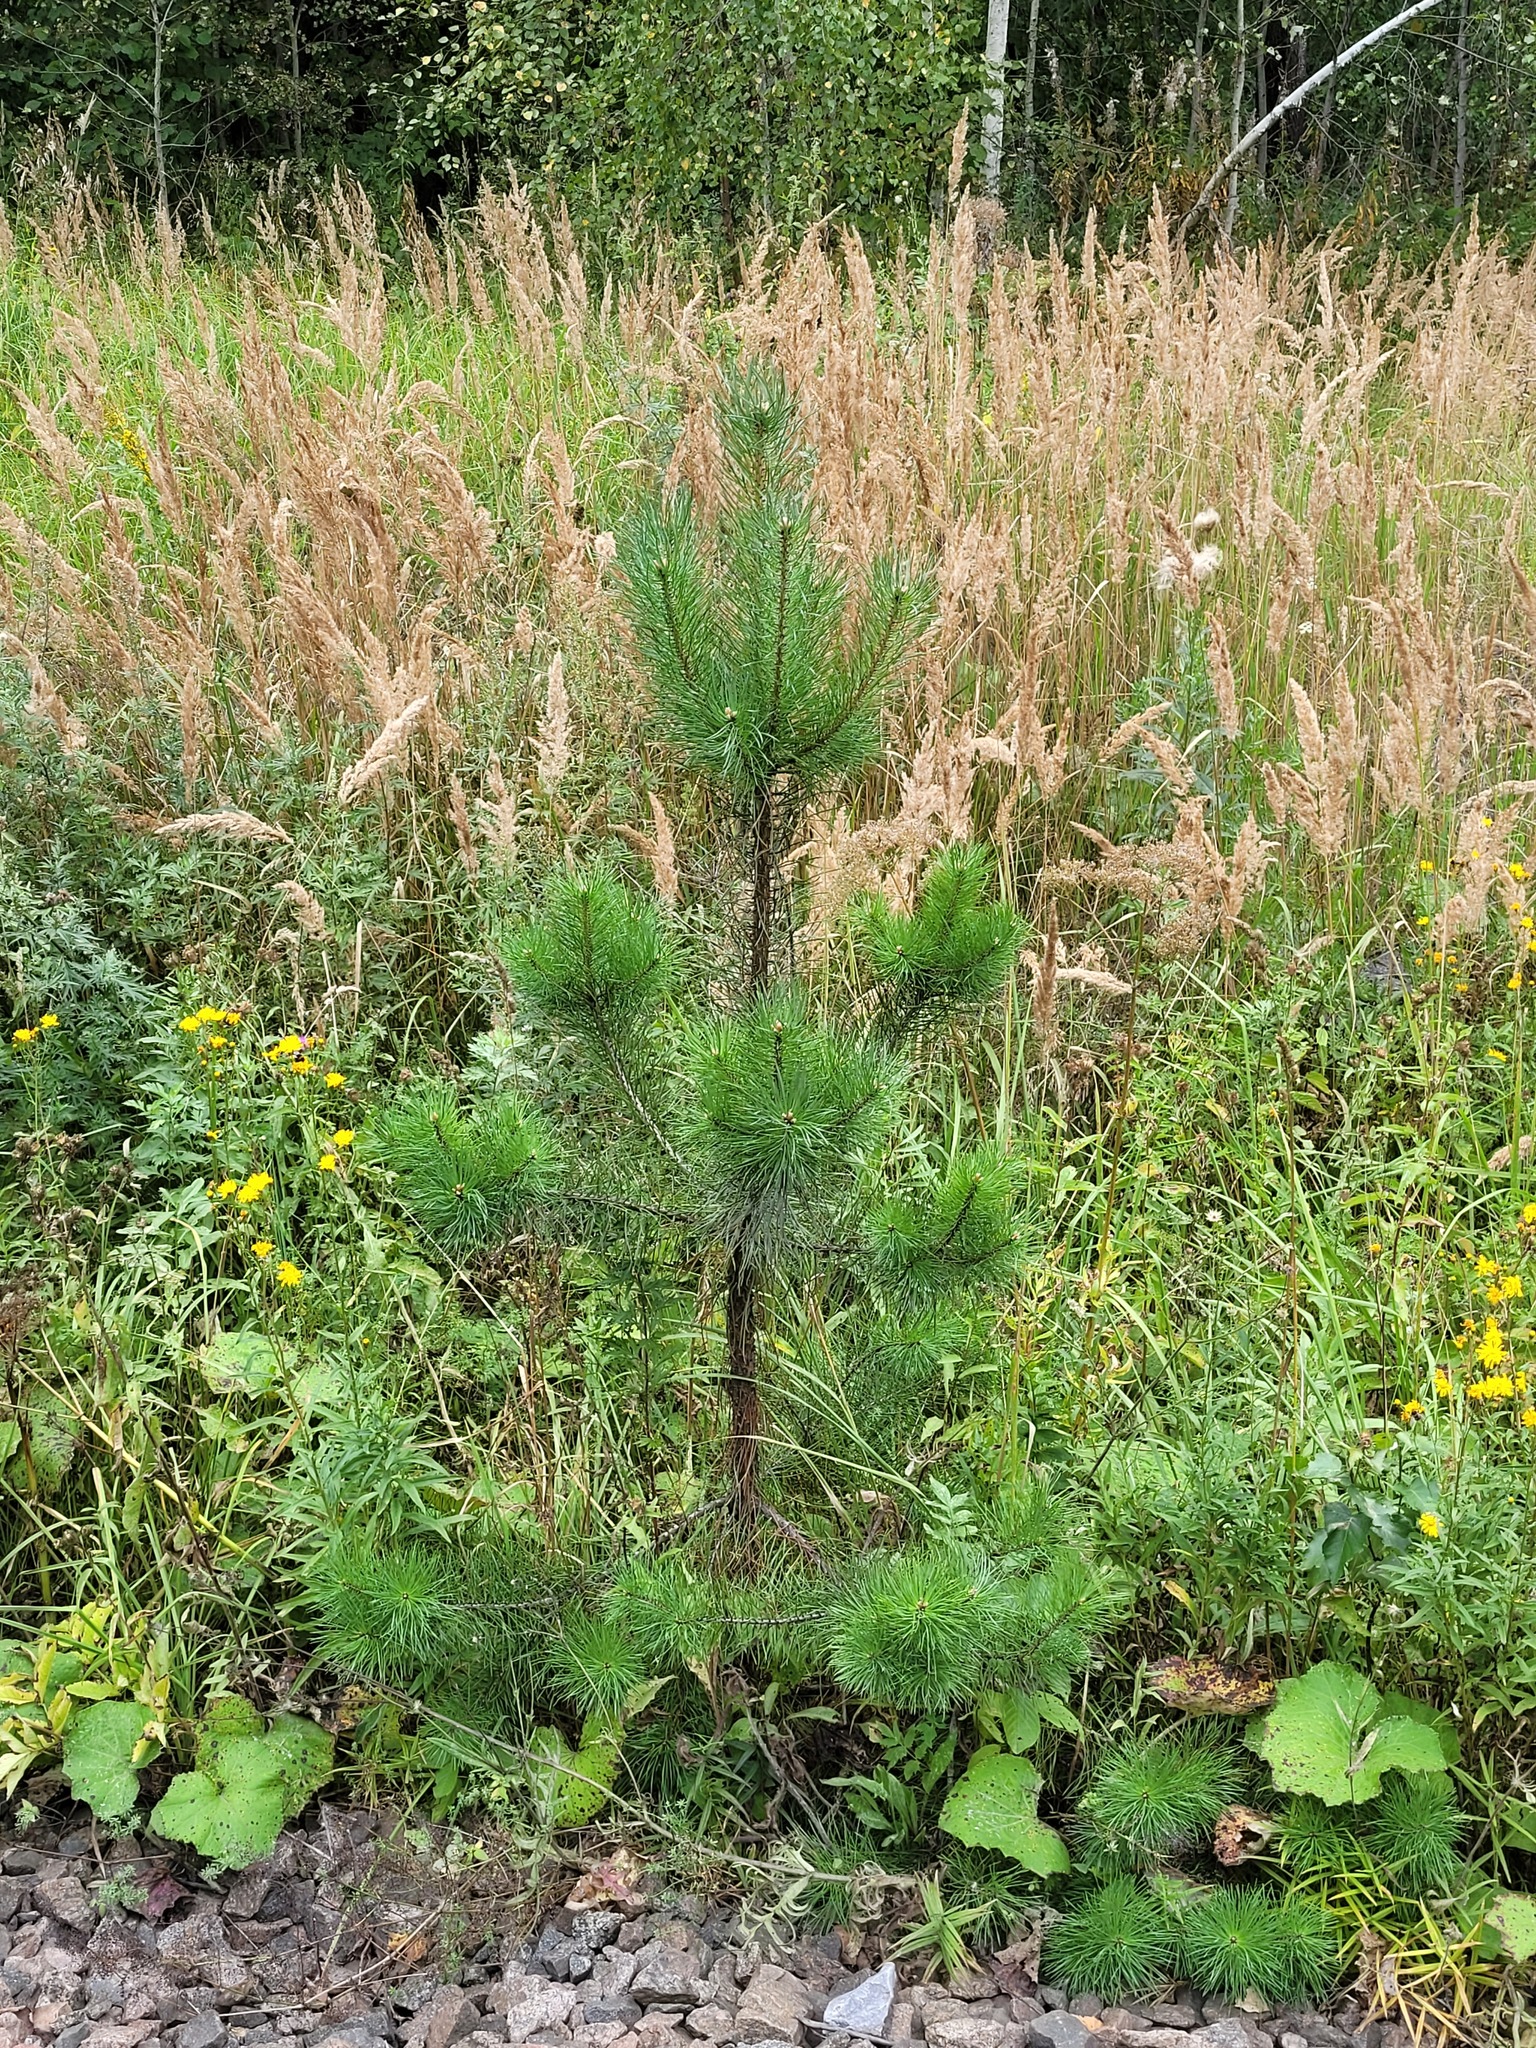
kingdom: Plantae
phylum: Tracheophyta
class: Pinopsida
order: Pinales
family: Pinaceae
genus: Pinus
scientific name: Pinus sylvestris
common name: Scots pine
